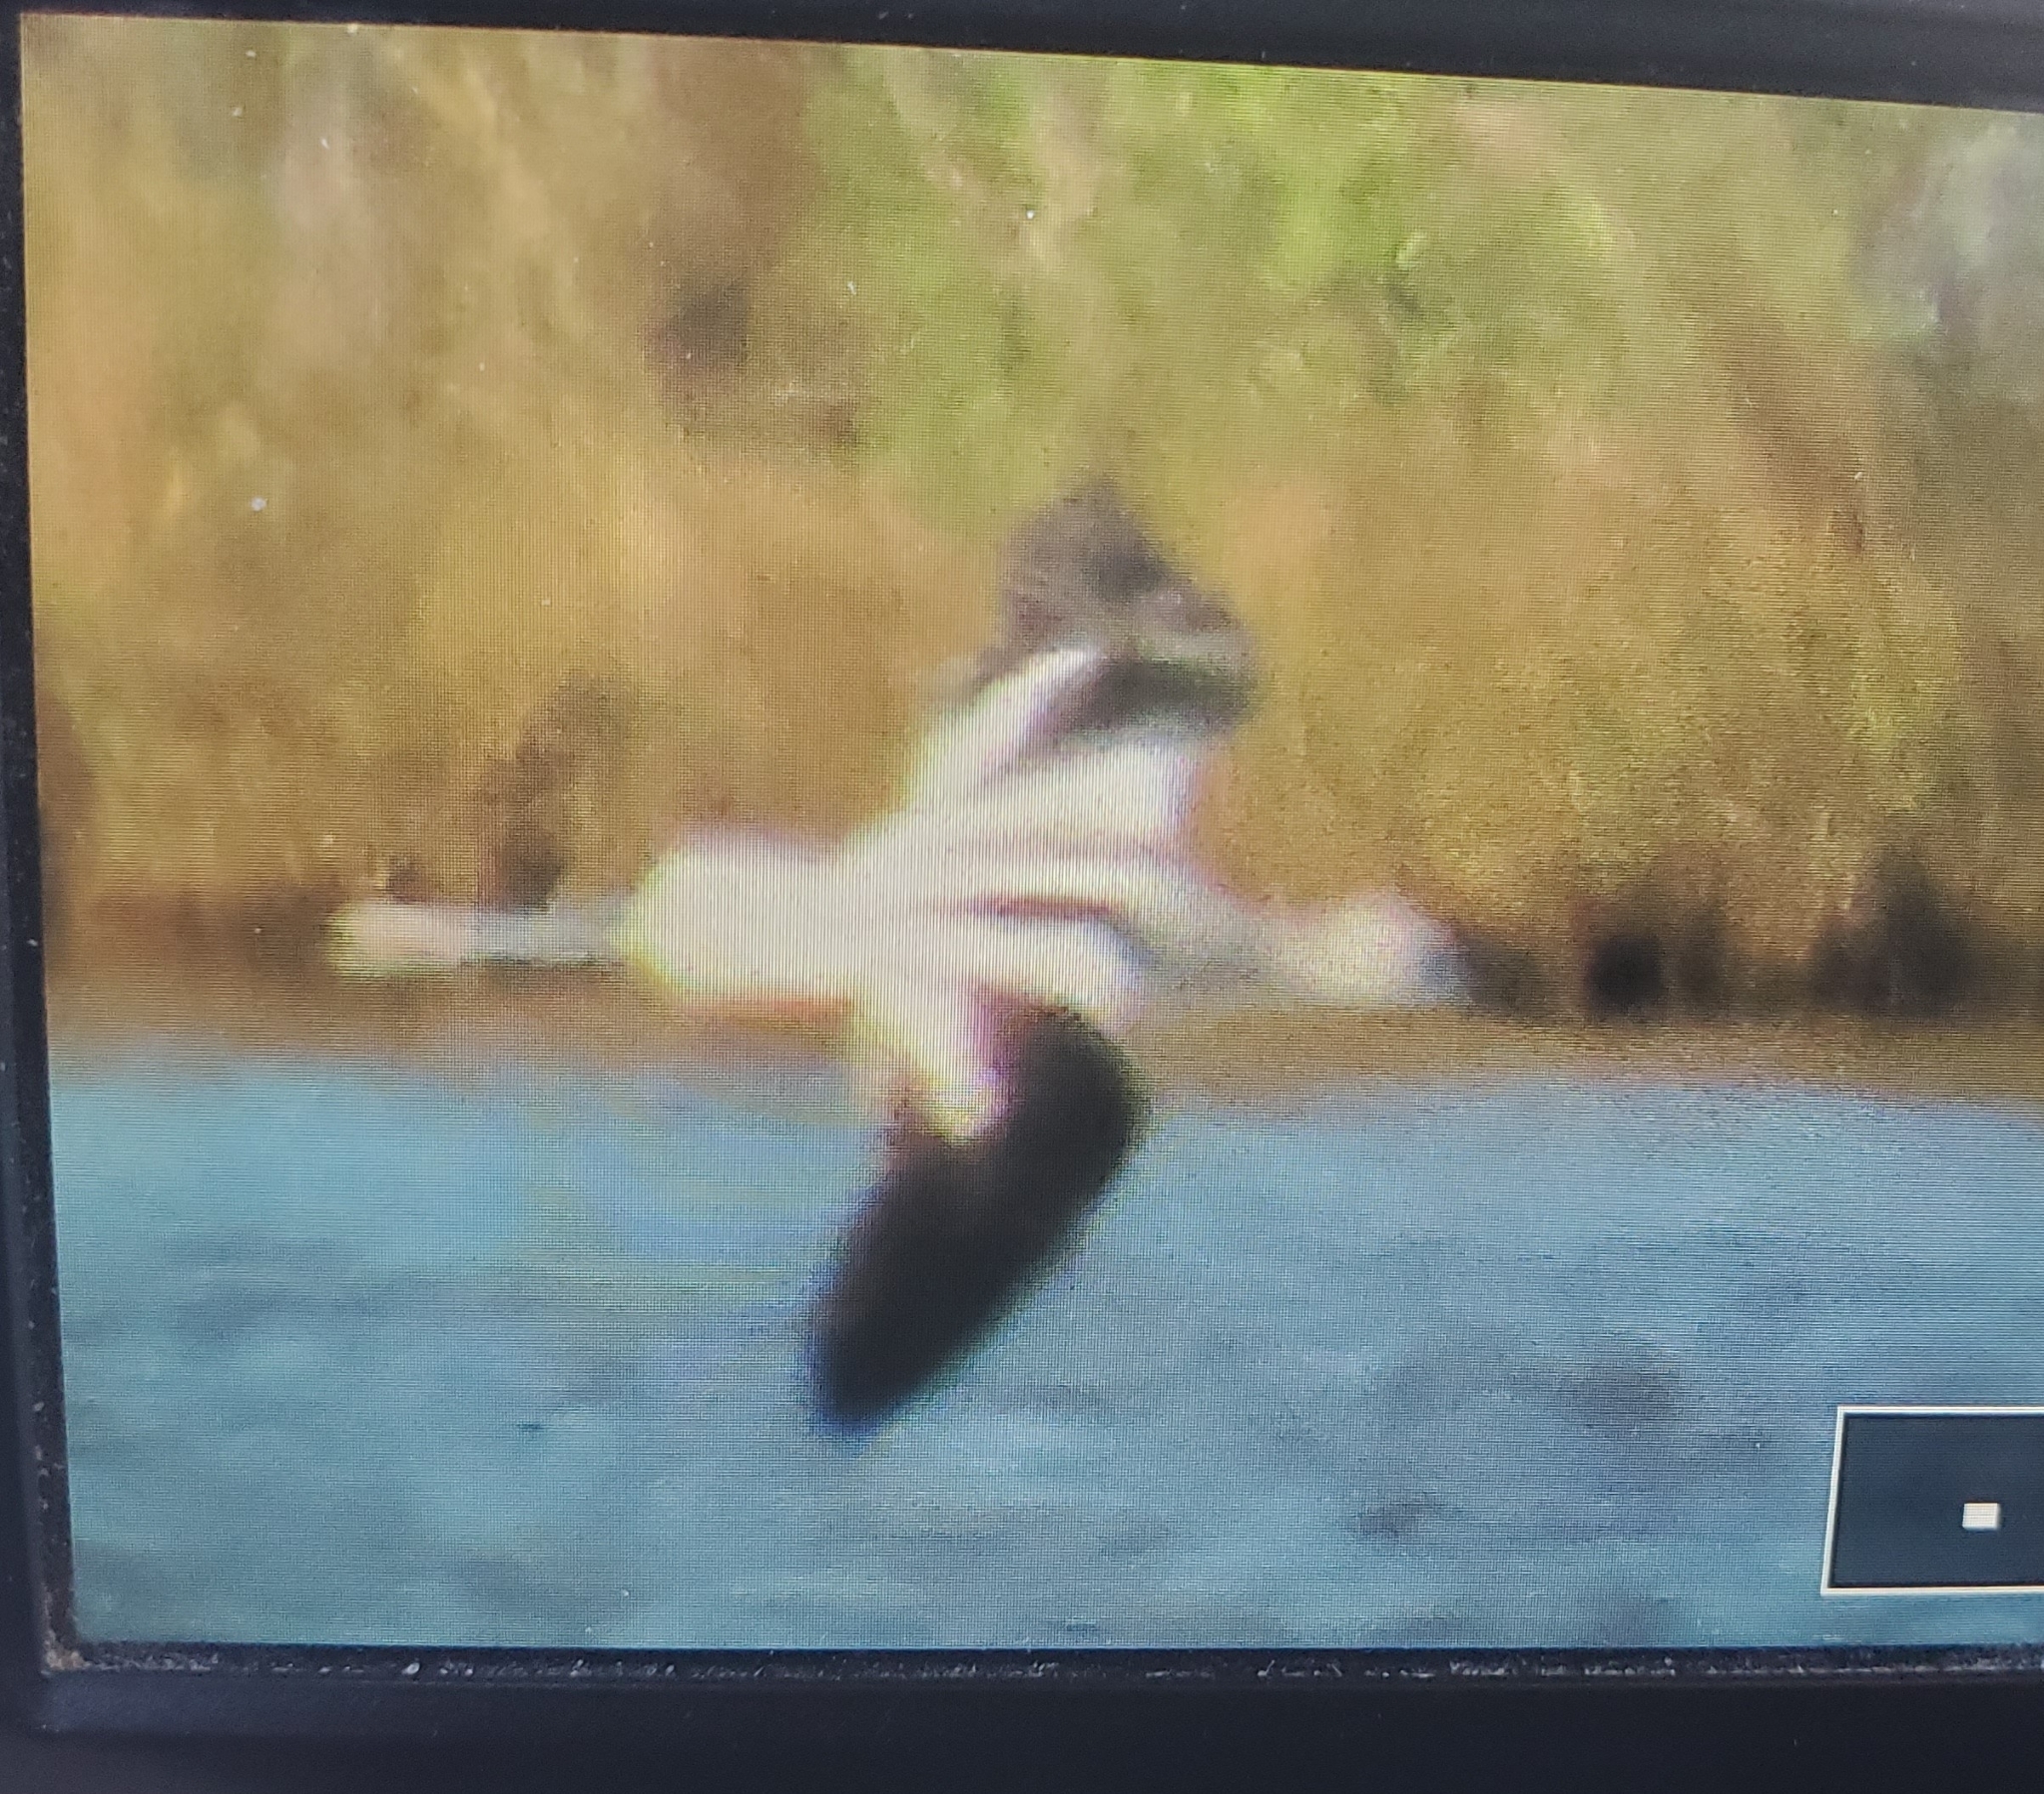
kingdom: Animalia
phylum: Chordata
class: Aves
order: Charadriiformes
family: Recurvirostridae
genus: Recurvirostra
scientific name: Recurvirostra americana
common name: American avocet
